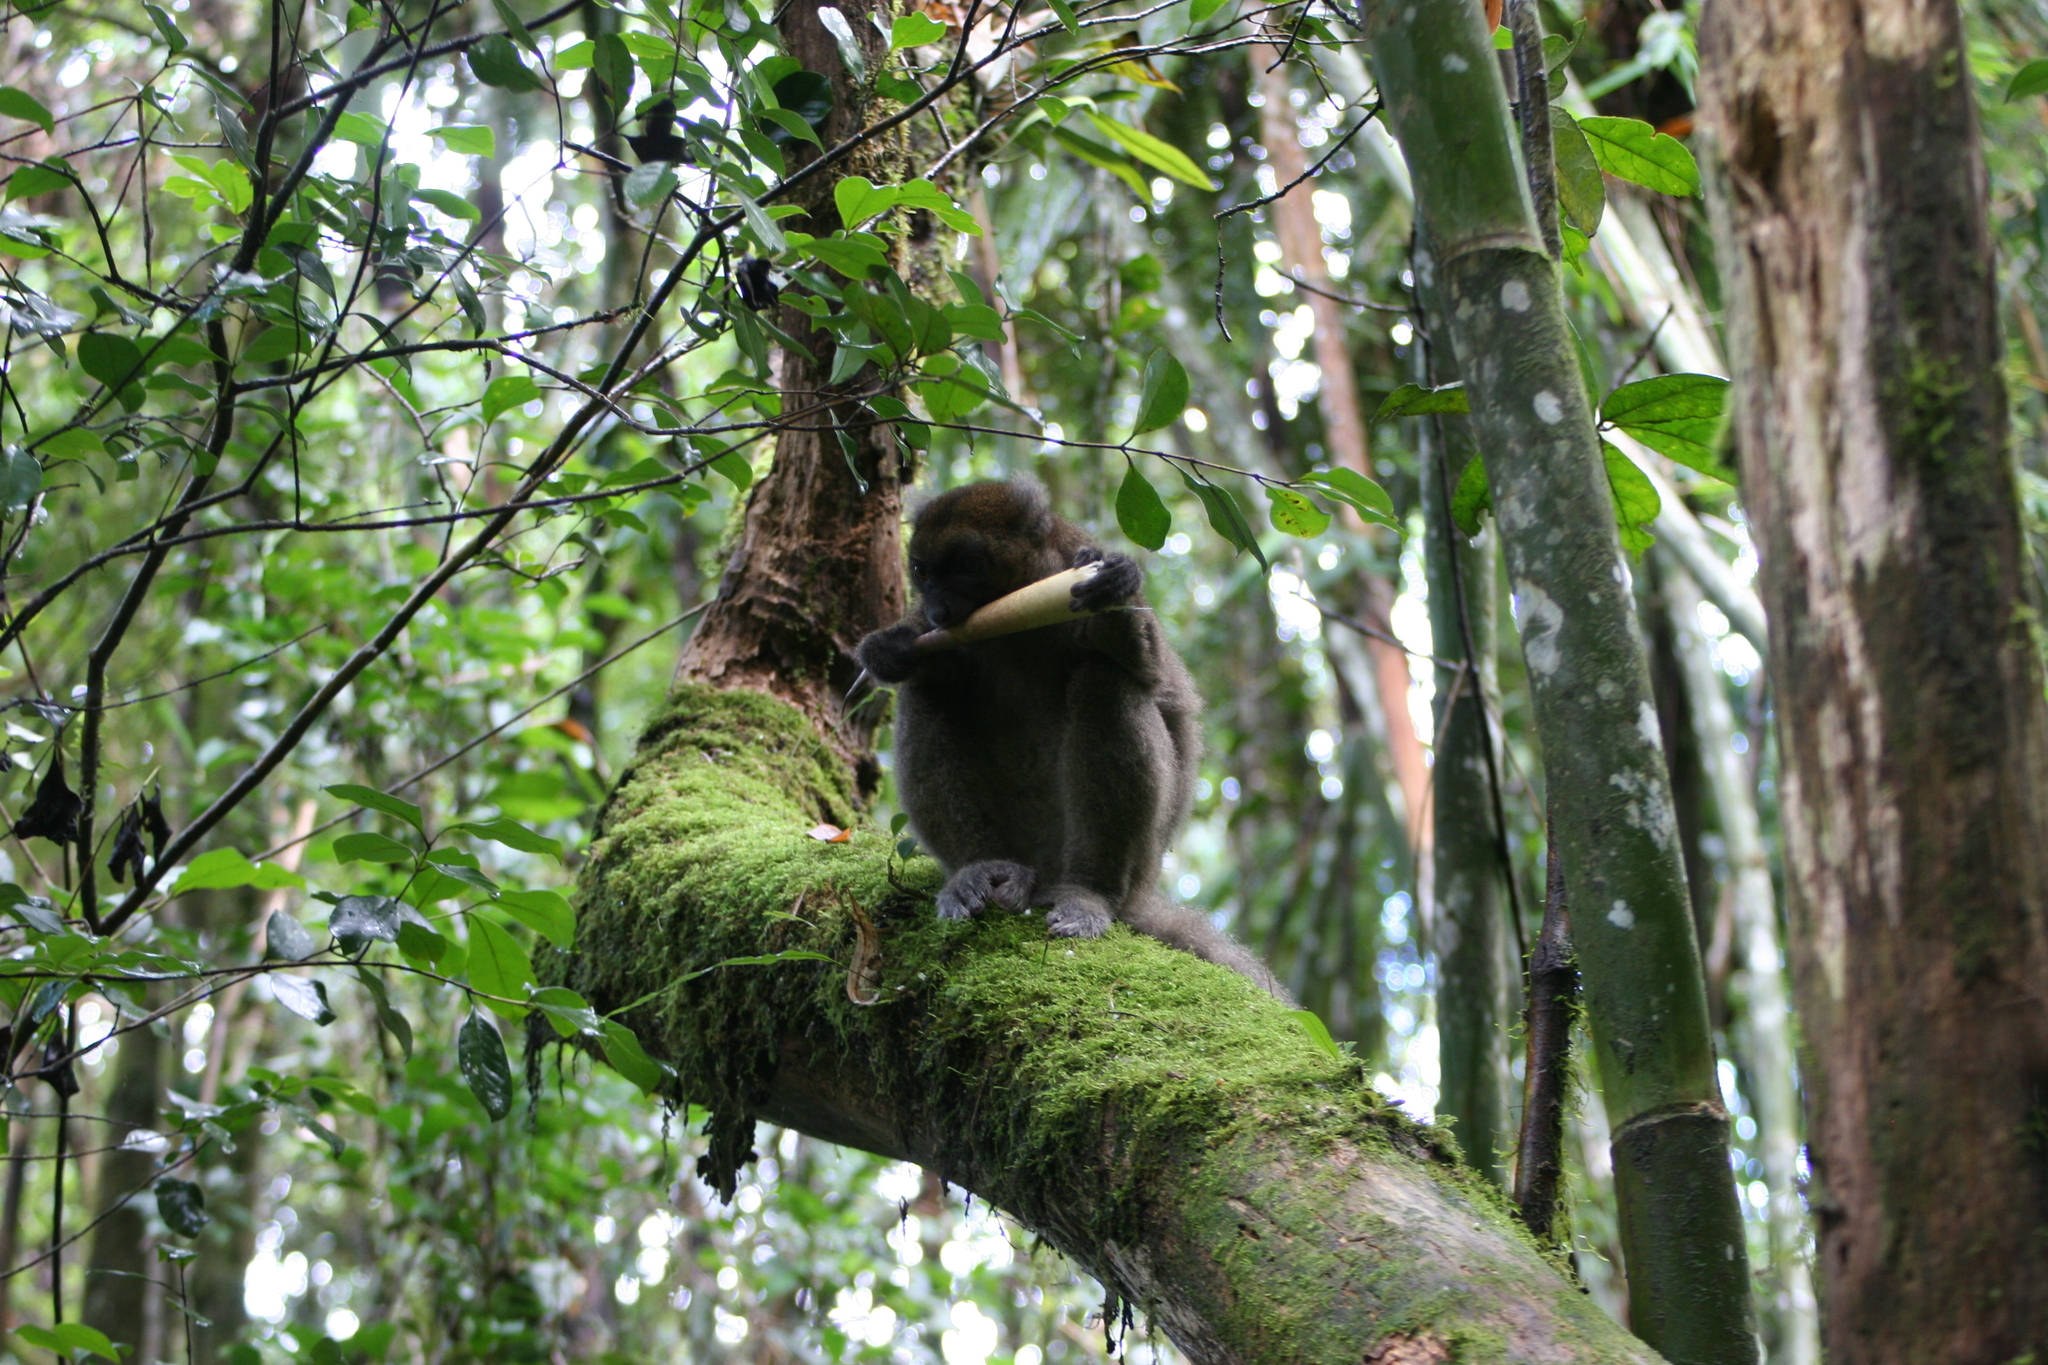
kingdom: Animalia
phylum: Chordata
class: Mammalia
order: Primates
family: Lemuridae
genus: Prolemur
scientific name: Prolemur simus
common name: Greater bamboo lemur
